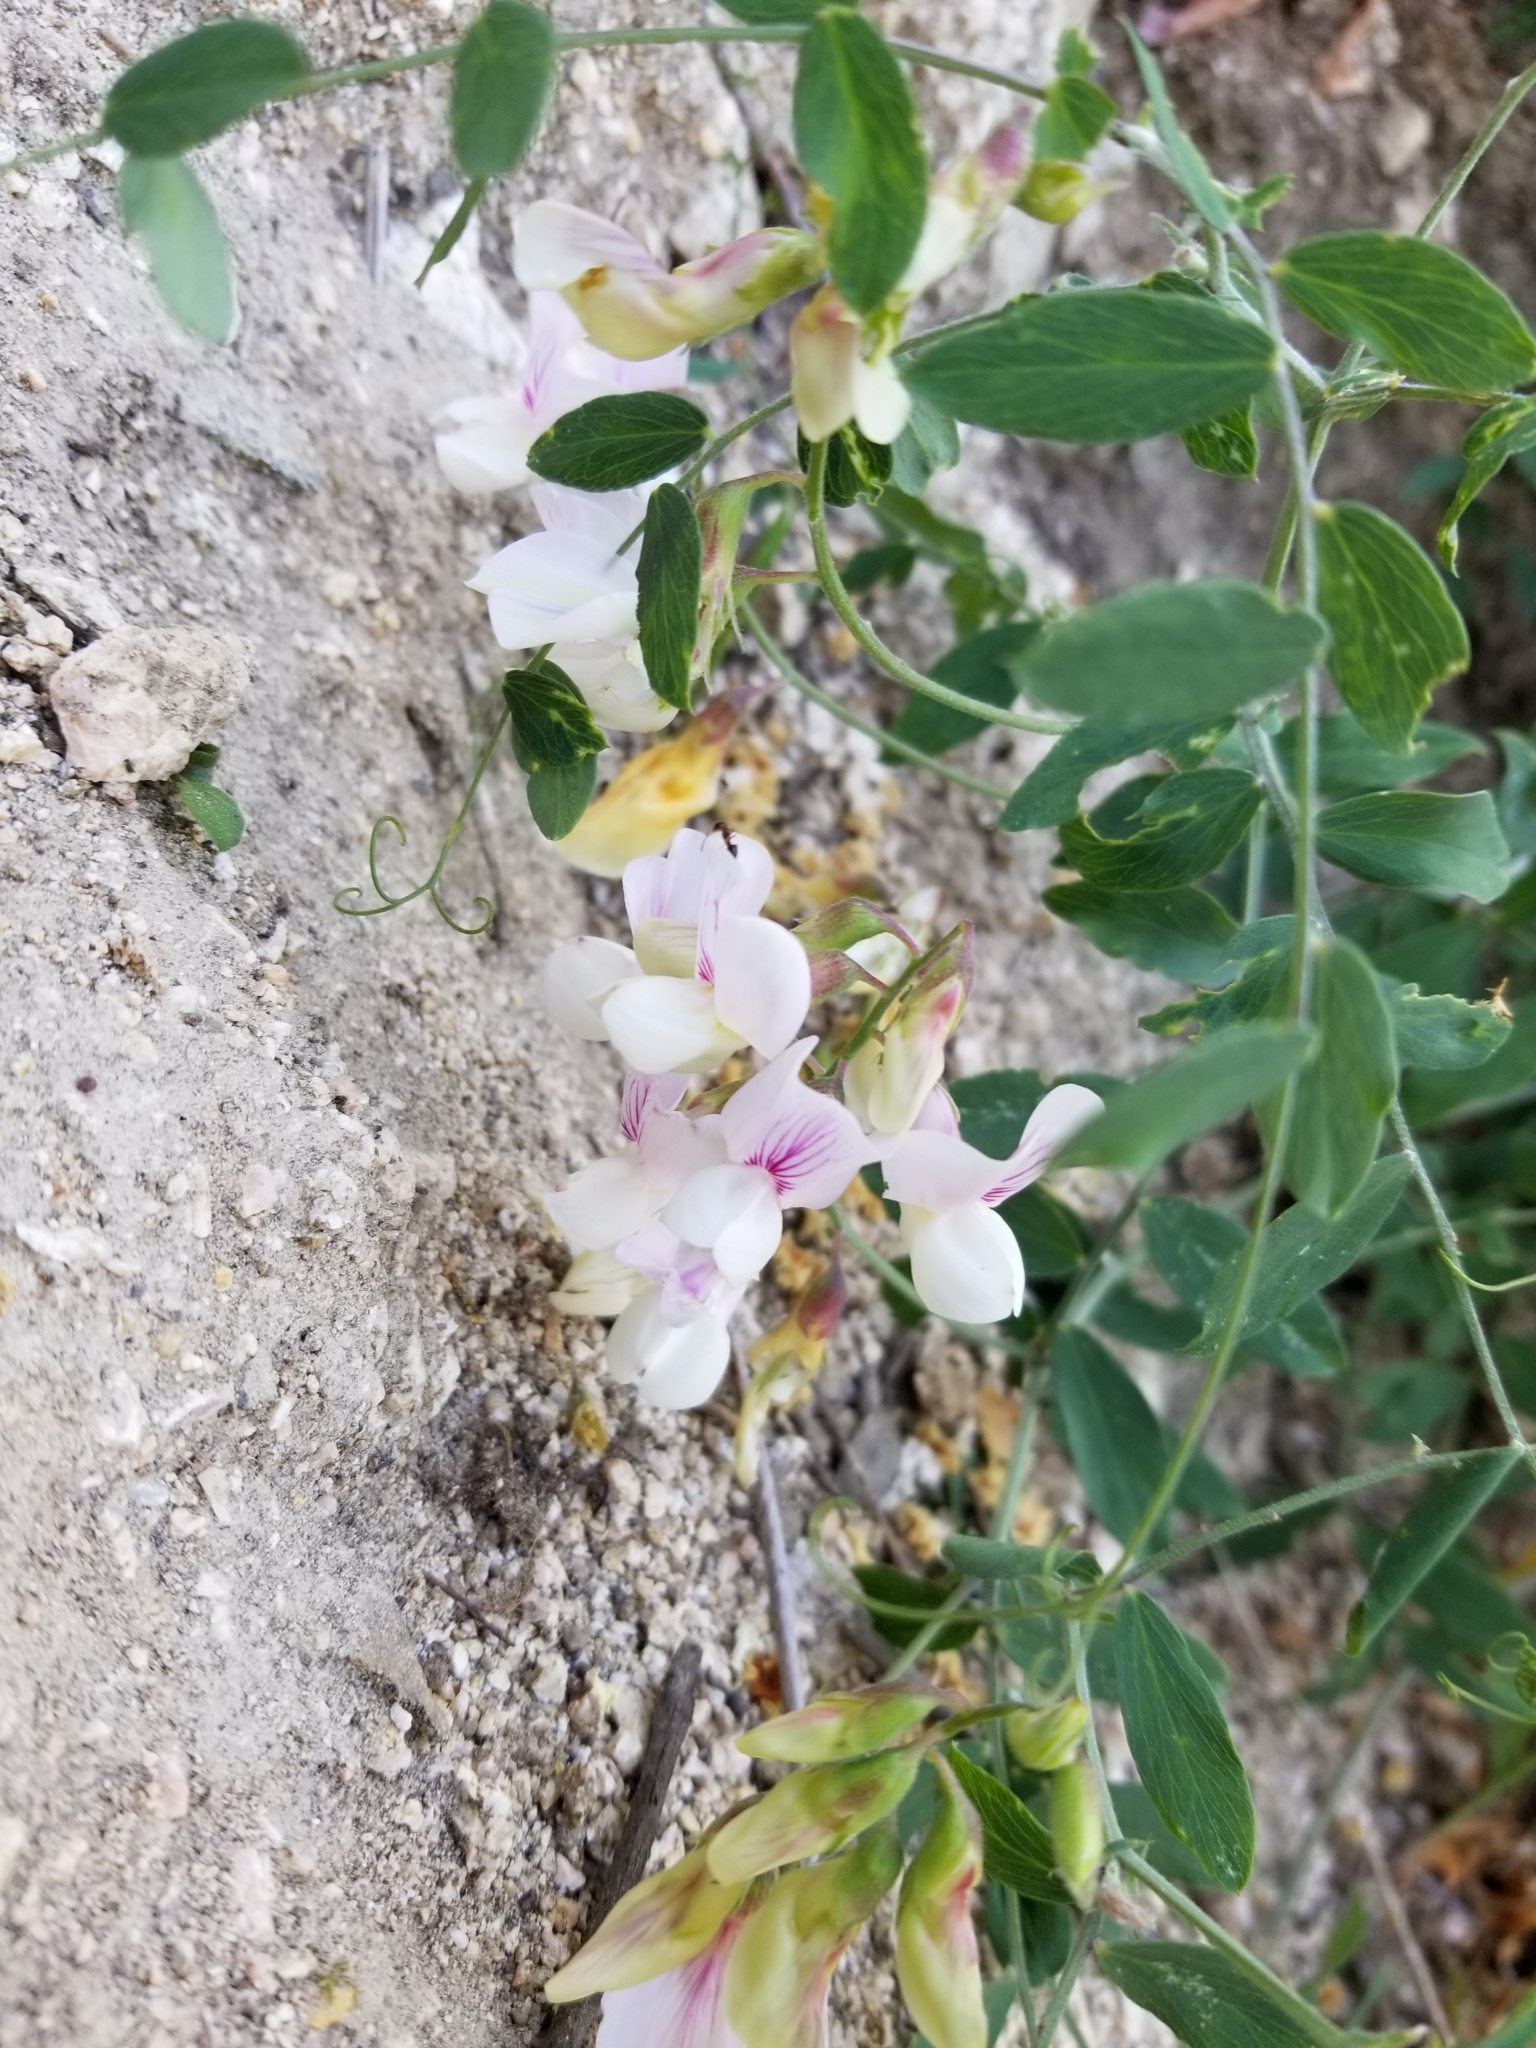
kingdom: Plantae
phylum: Tracheophyta
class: Magnoliopsida
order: Fabales
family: Fabaceae
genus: Lathyrus
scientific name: Lathyrus vestitus
